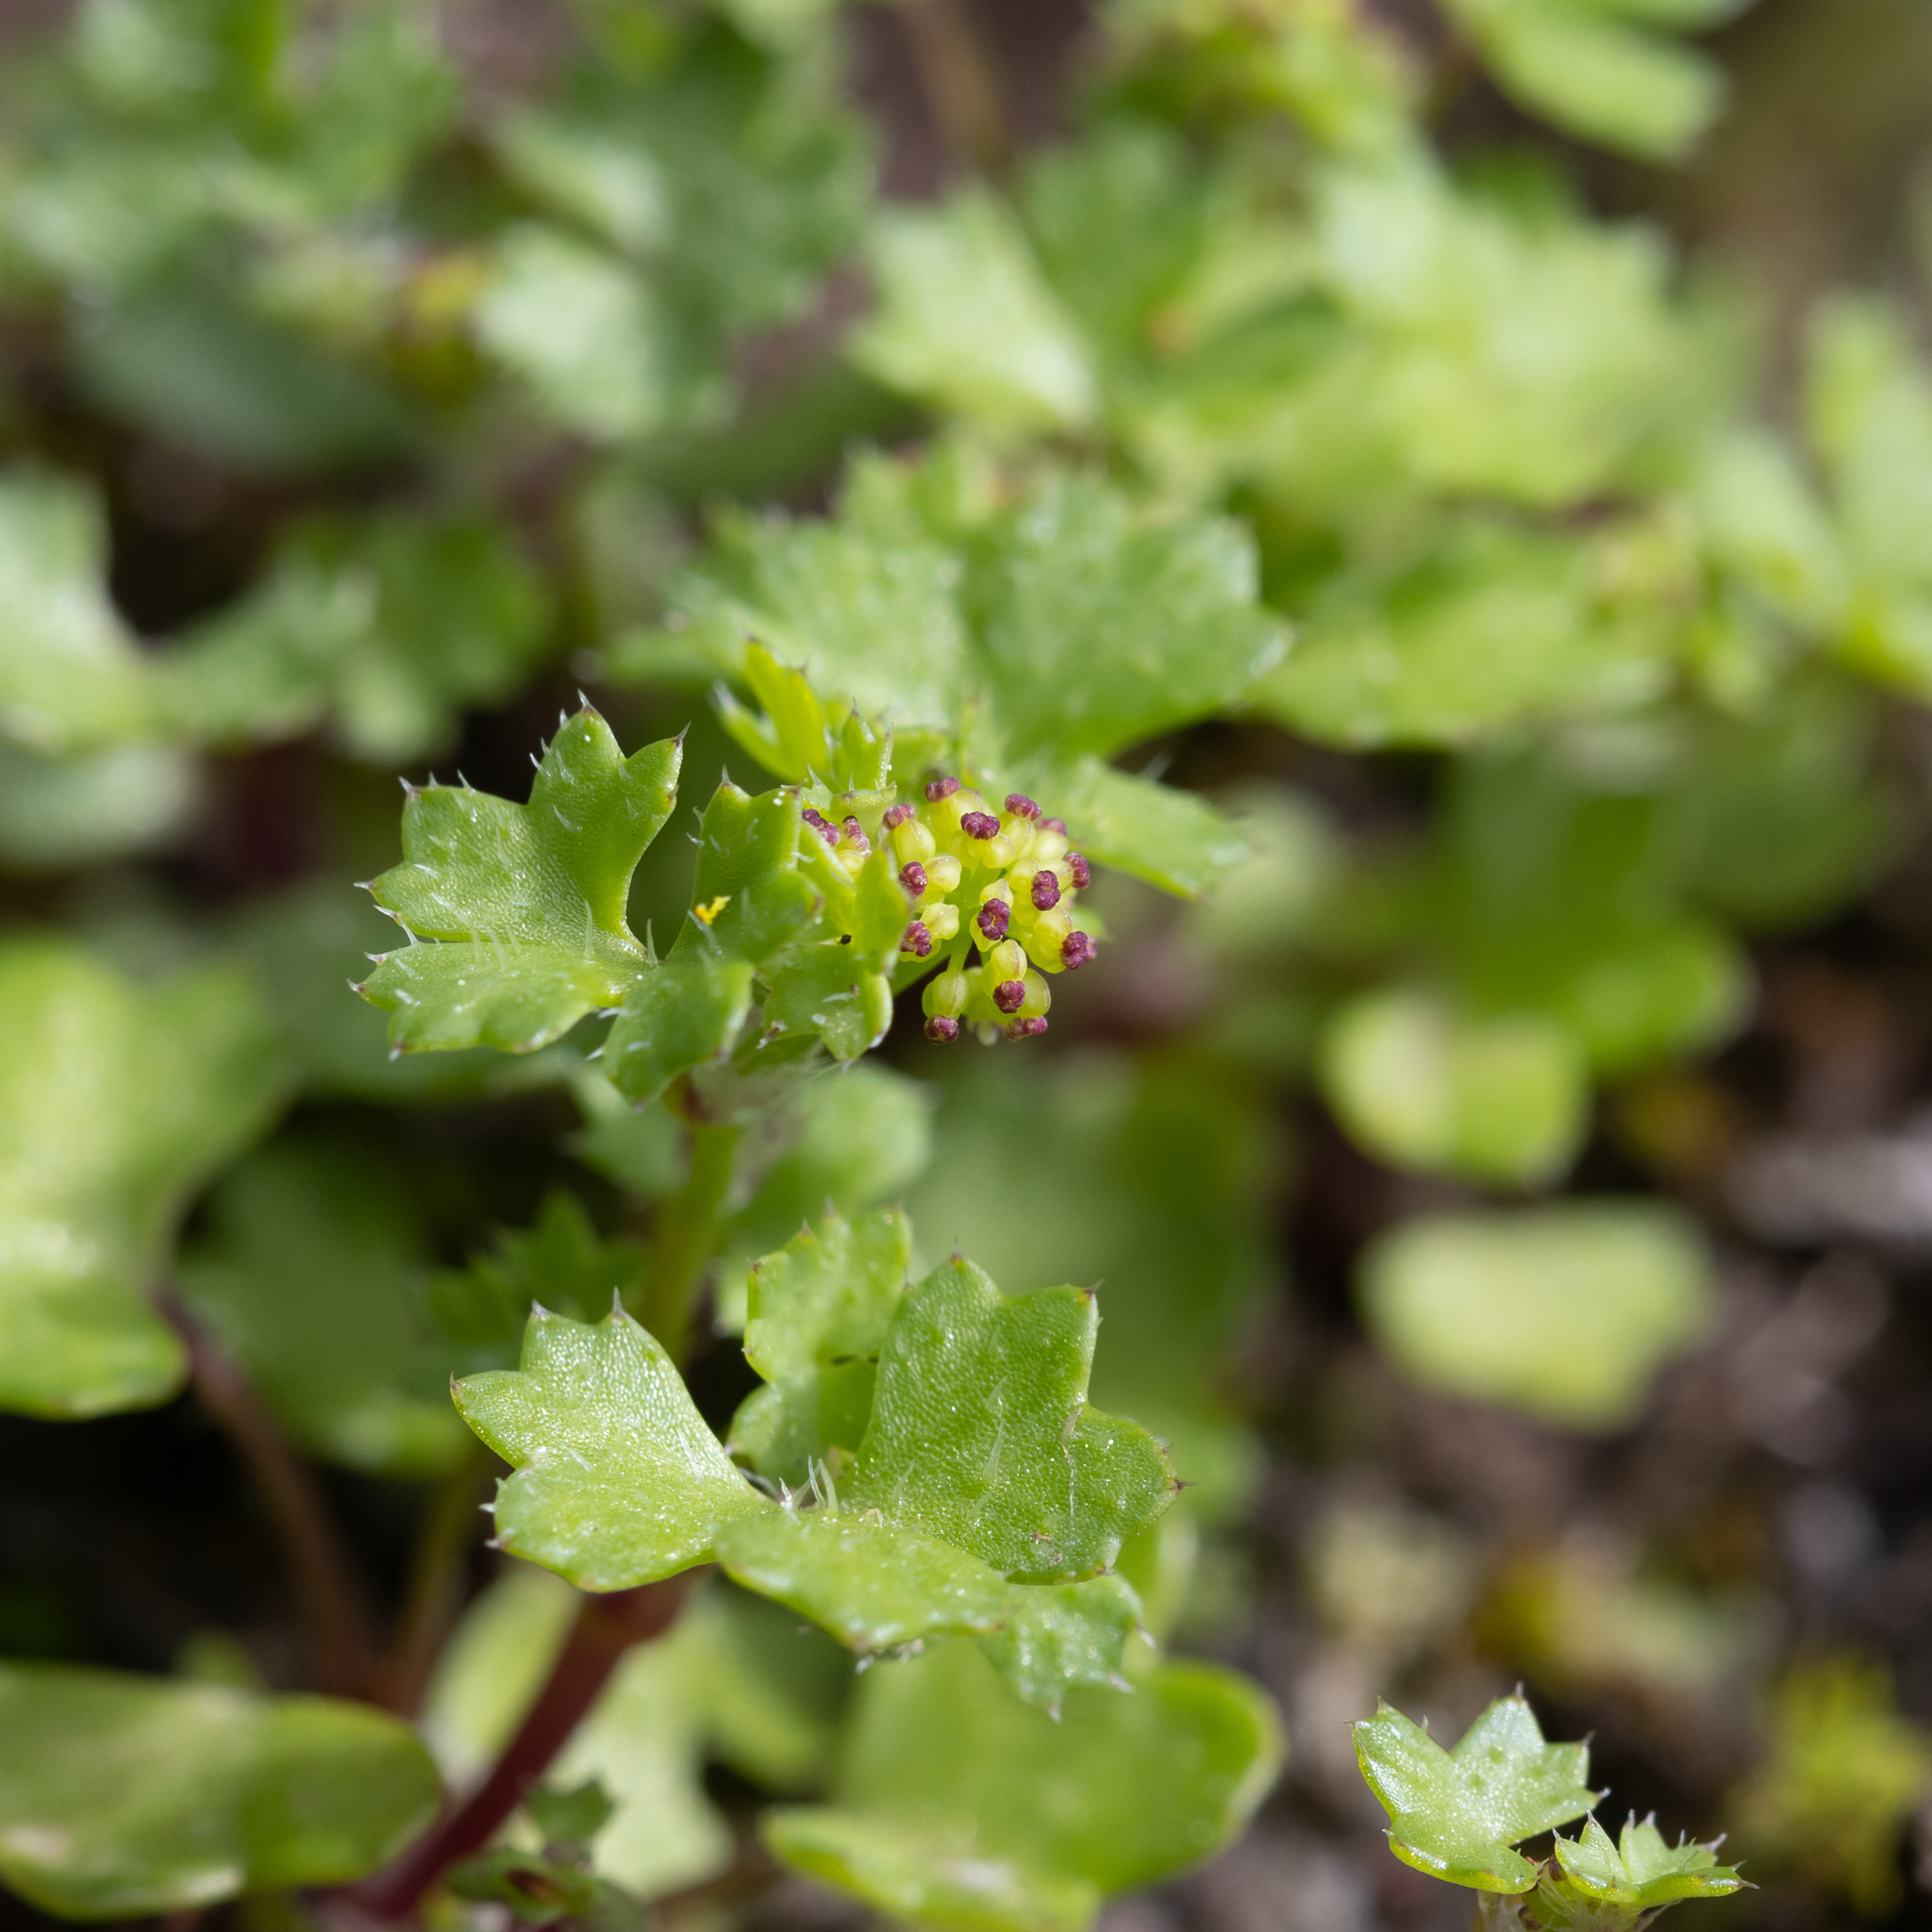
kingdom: Plantae
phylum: Tracheophyta
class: Magnoliopsida
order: Apiales
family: Araliaceae
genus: Hydrocotyle
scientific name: Hydrocotyle callicarpa
